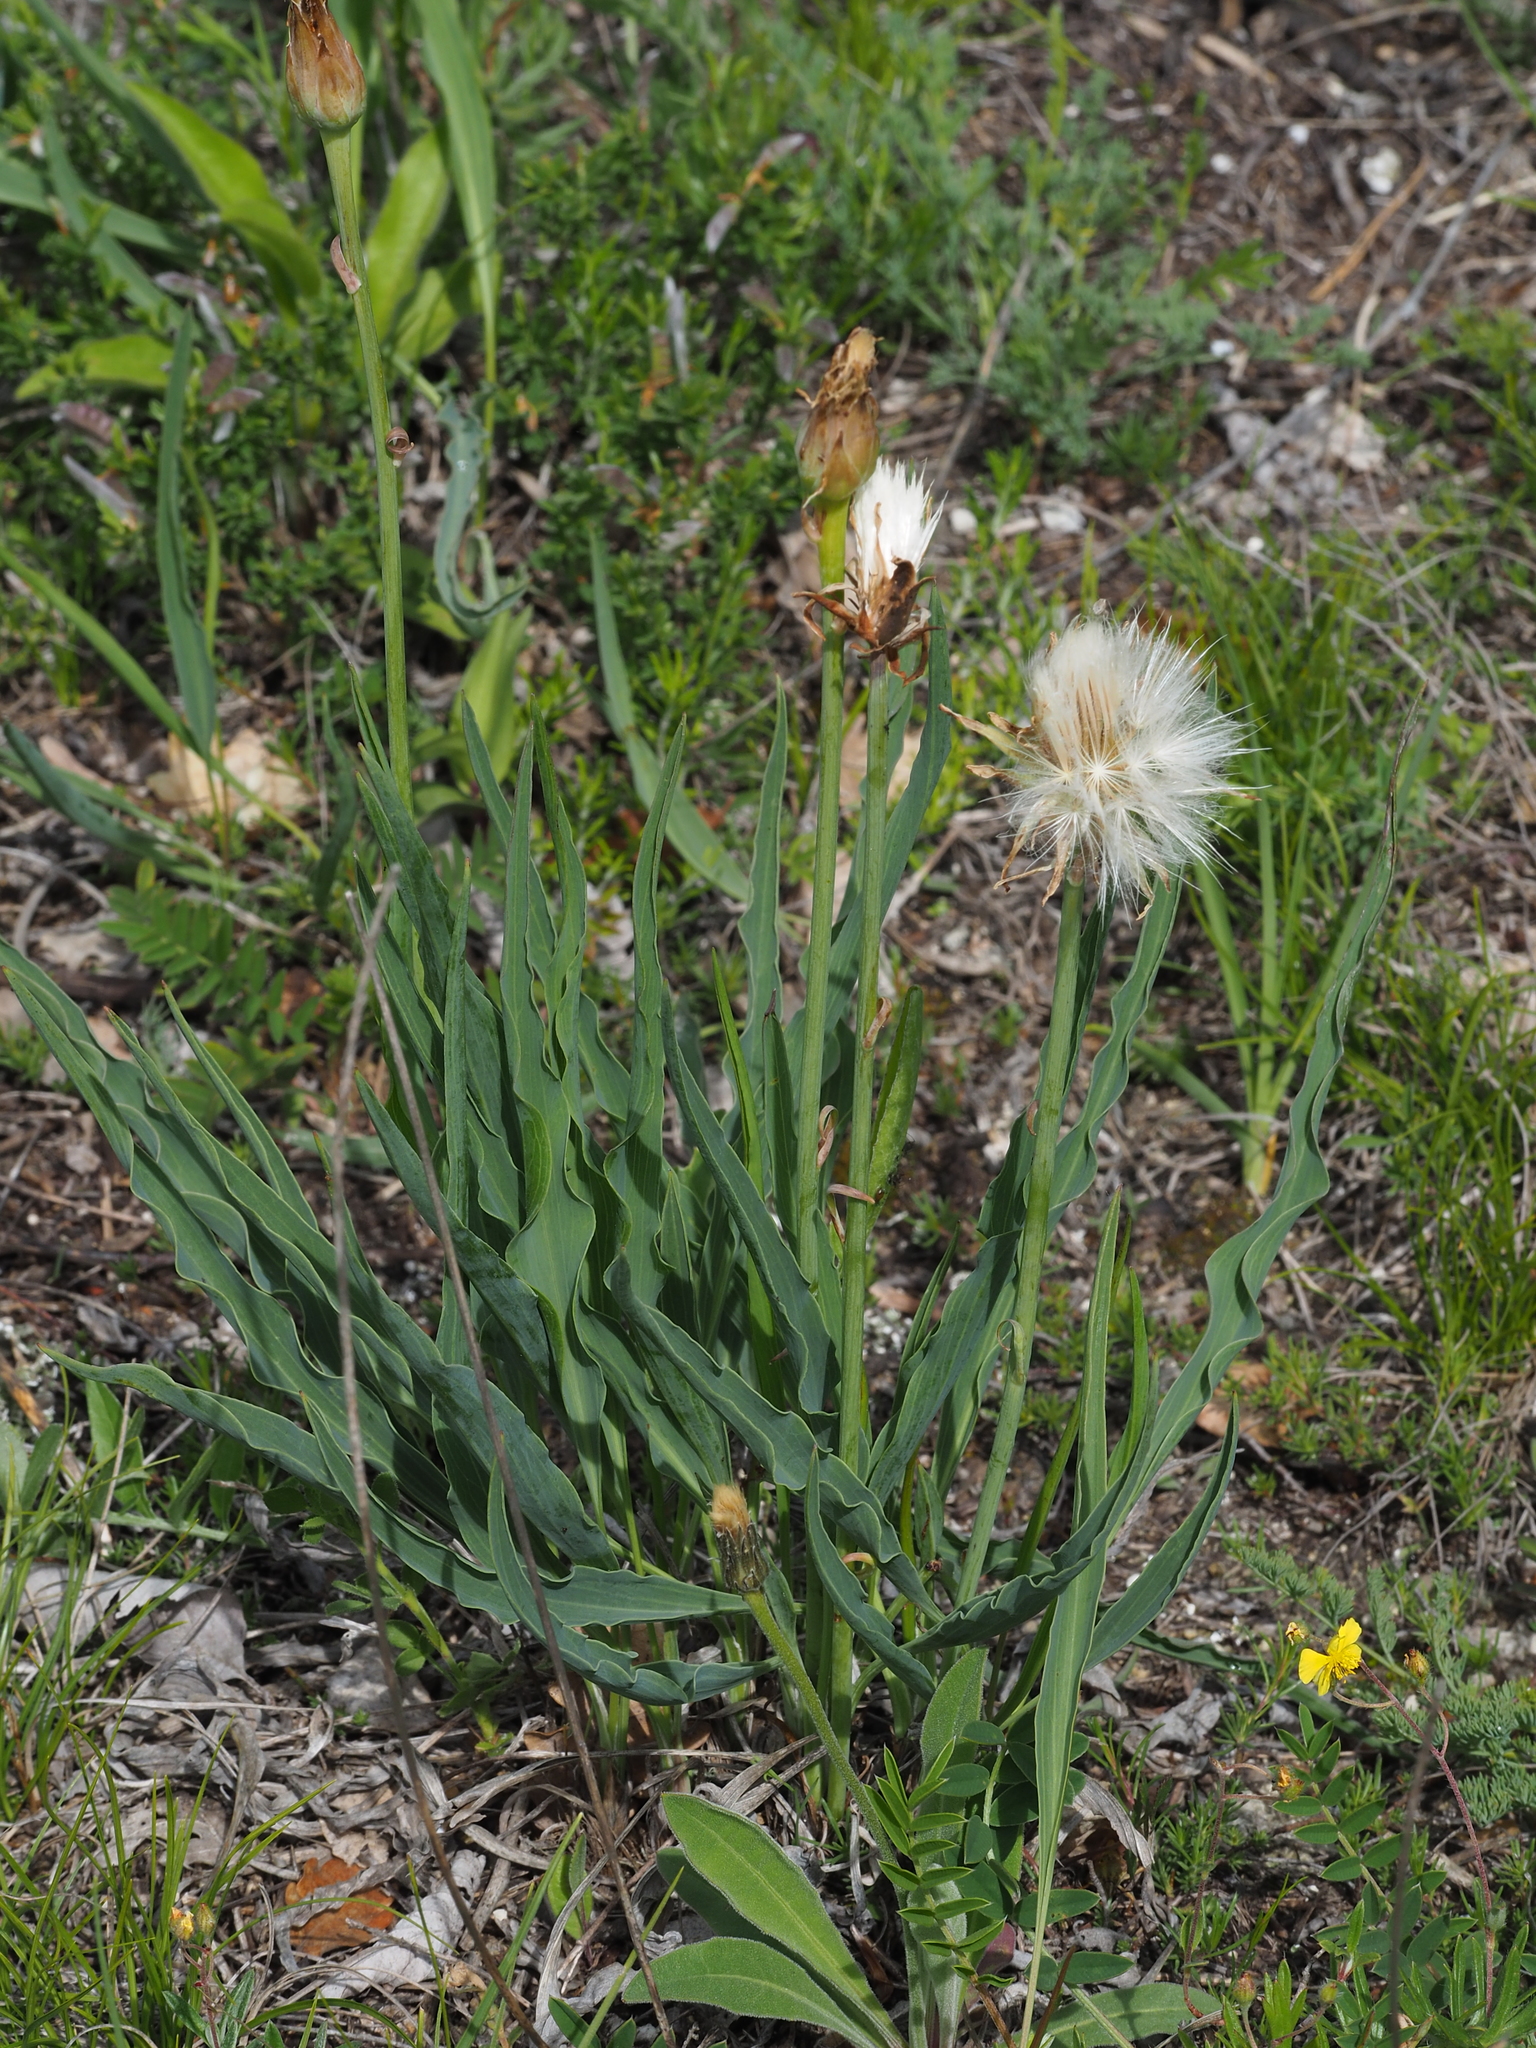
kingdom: Plantae
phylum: Tracheophyta
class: Magnoliopsida
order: Asterales
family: Asteraceae
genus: Takhtajaniantha
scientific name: Takhtajaniantha austriaca
